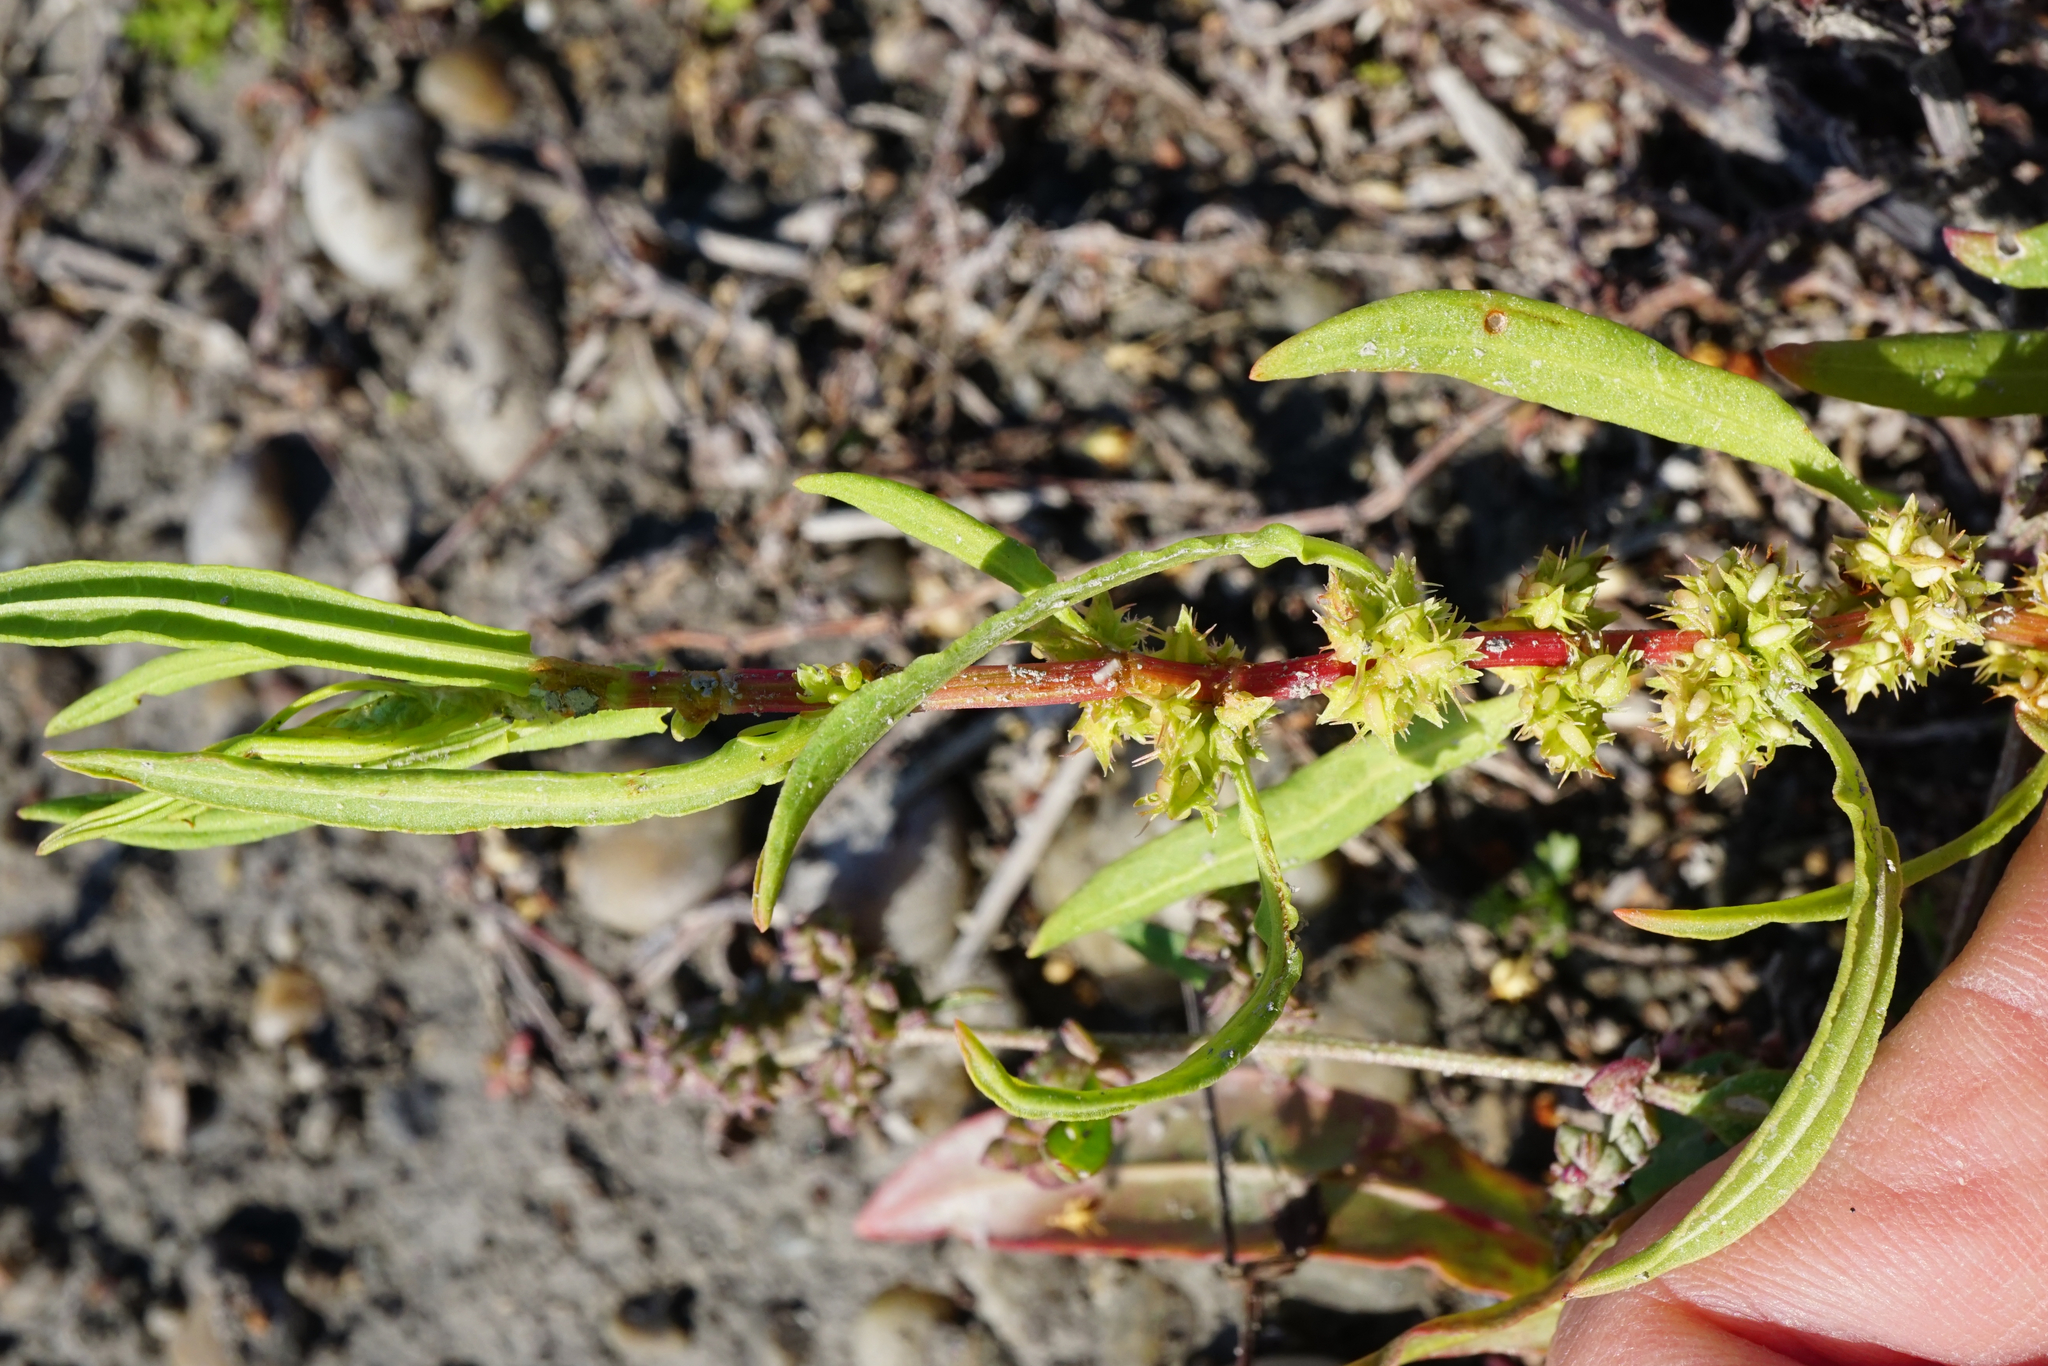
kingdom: Plantae
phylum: Tracheophyta
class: Magnoliopsida
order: Caryophyllales
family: Polygonaceae
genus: Rumex
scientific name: Rumex palustris
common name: Marsh dock
